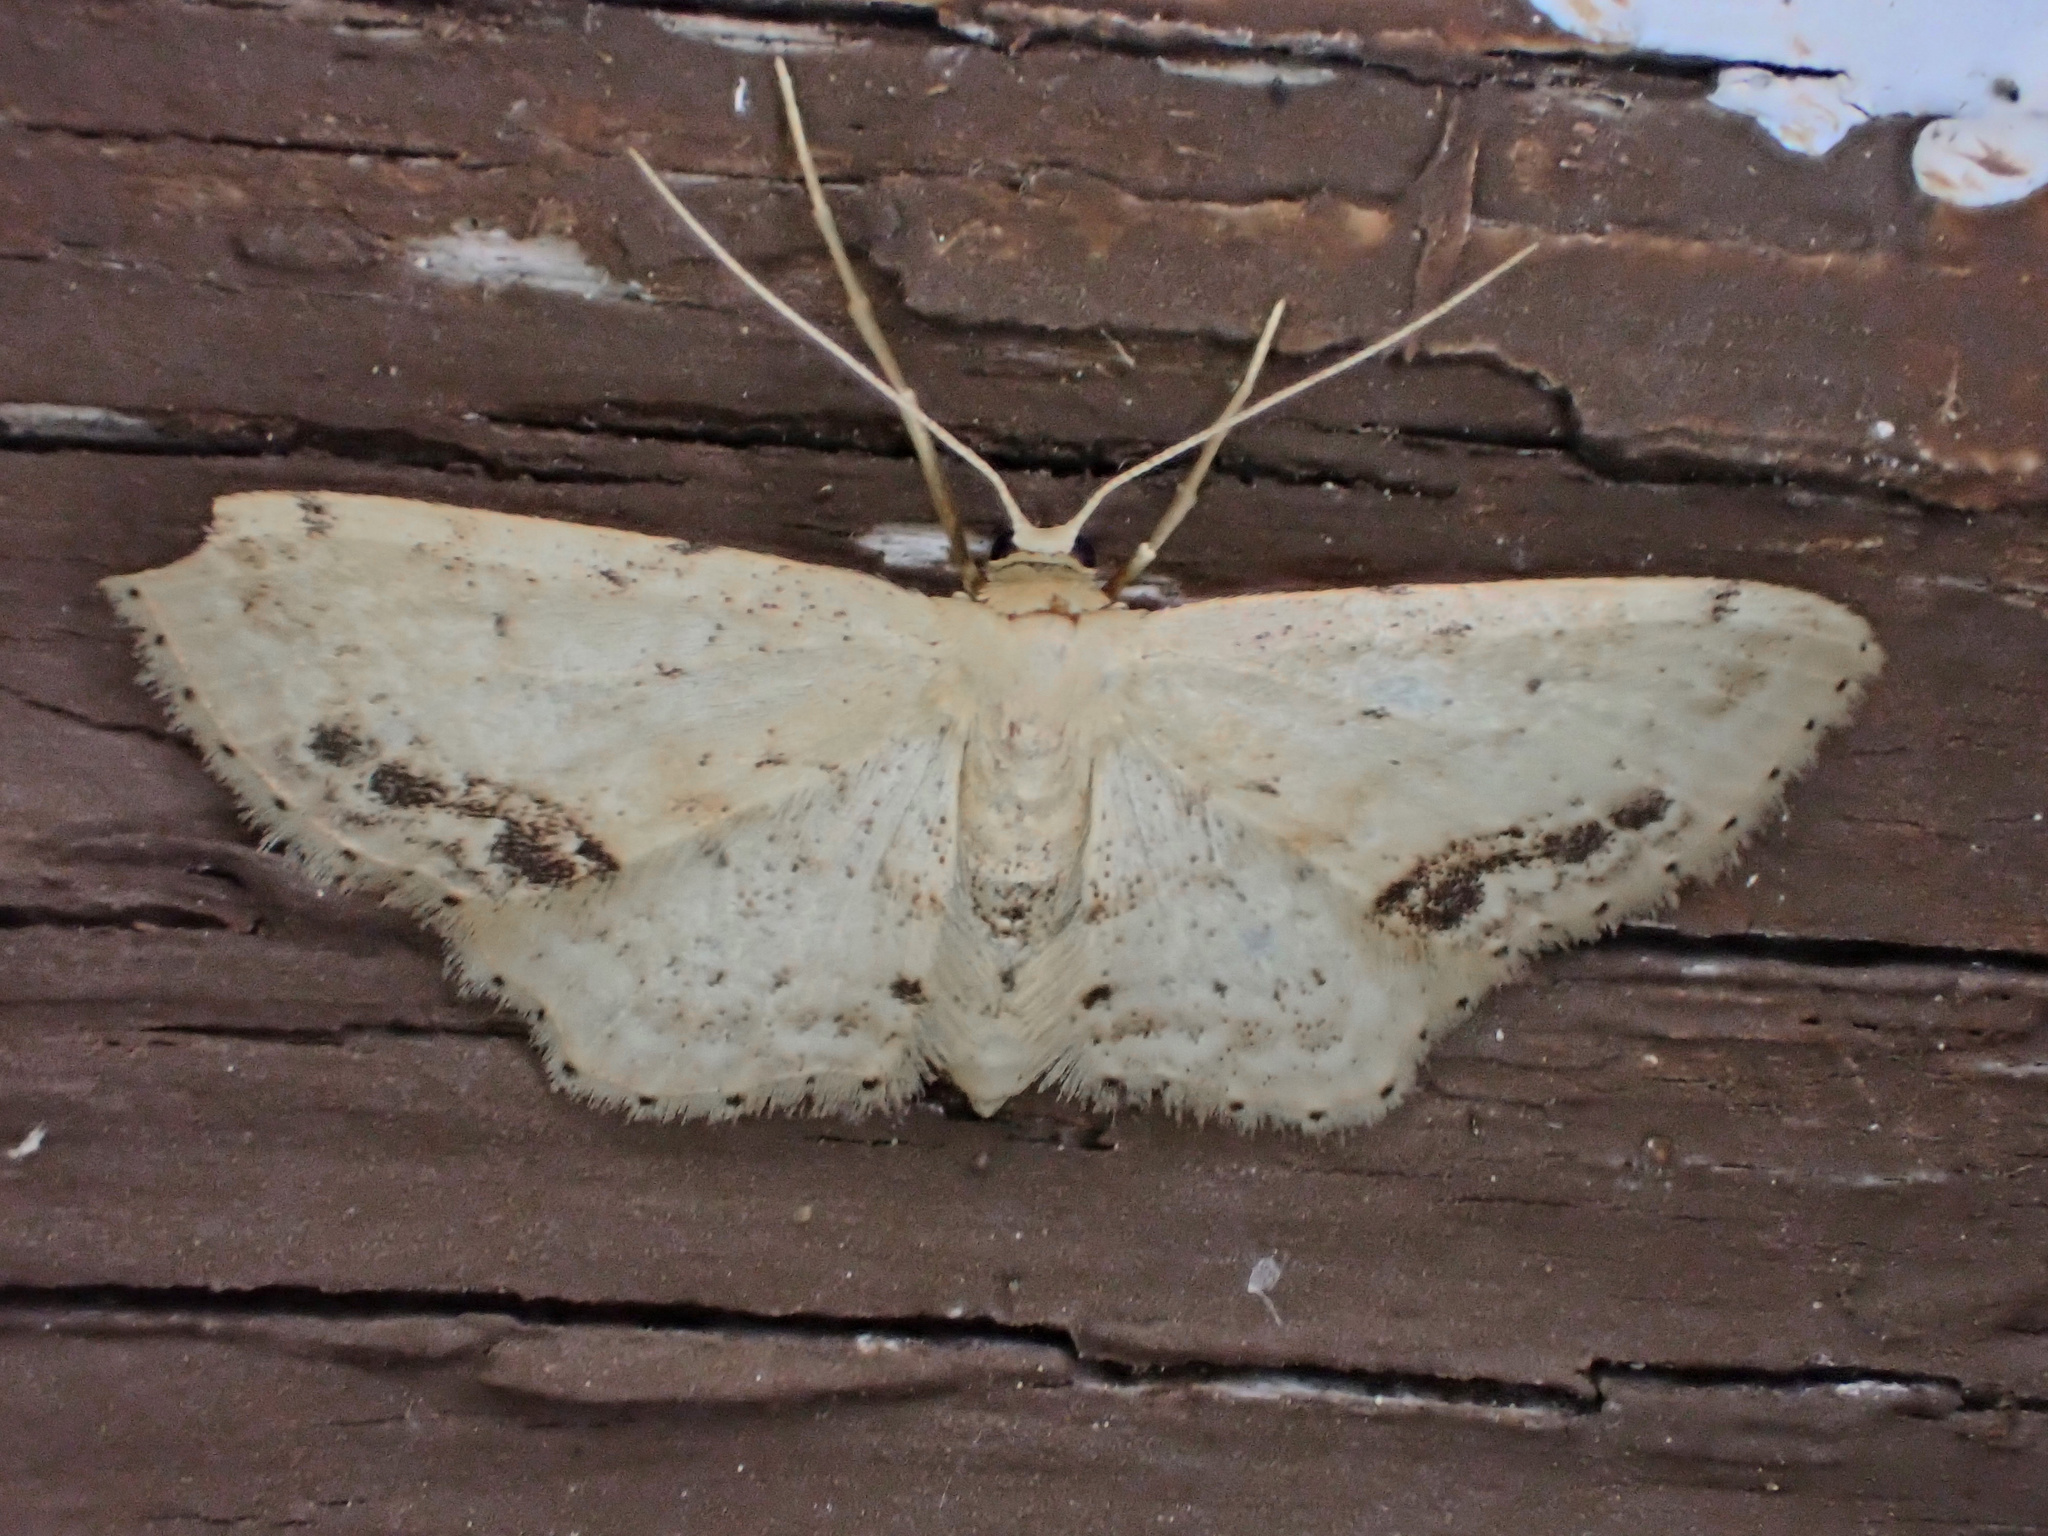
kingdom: Animalia
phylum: Arthropoda
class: Insecta
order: Lepidoptera
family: Geometridae
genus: Idaea
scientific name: Idaea dimidiata
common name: Single-dotted wave
